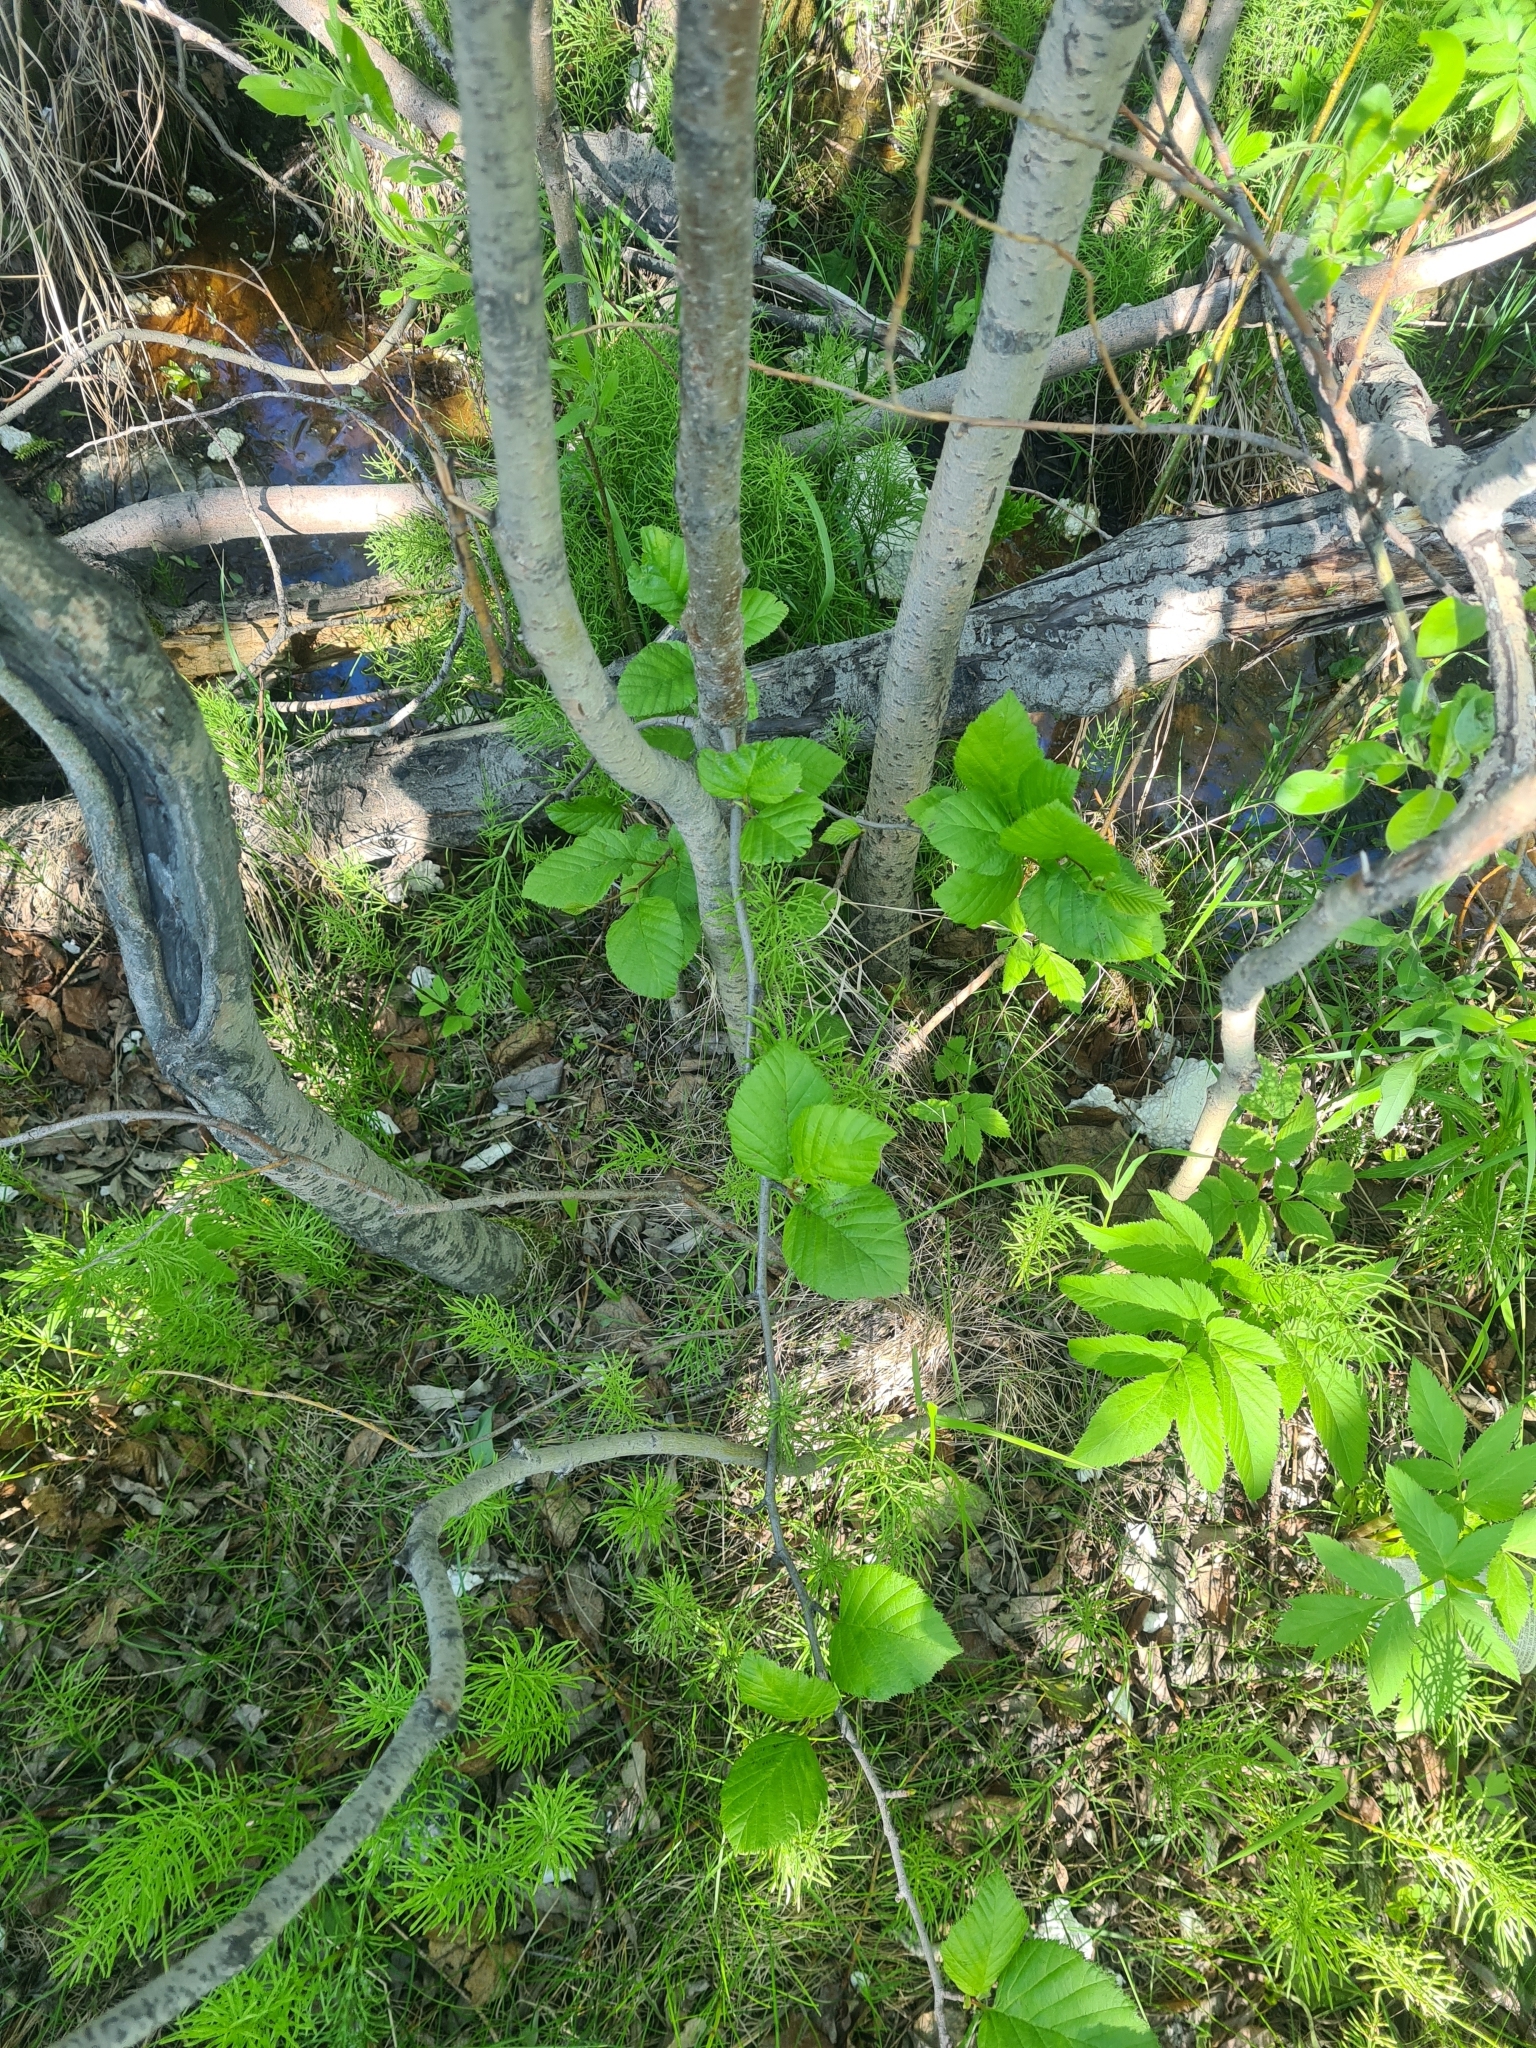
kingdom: Plantae
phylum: Tracheophyta
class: Magnoliopsida
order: Fagales
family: Betulaceae
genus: Alnus
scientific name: Alnus alnobetula
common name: Green alder
